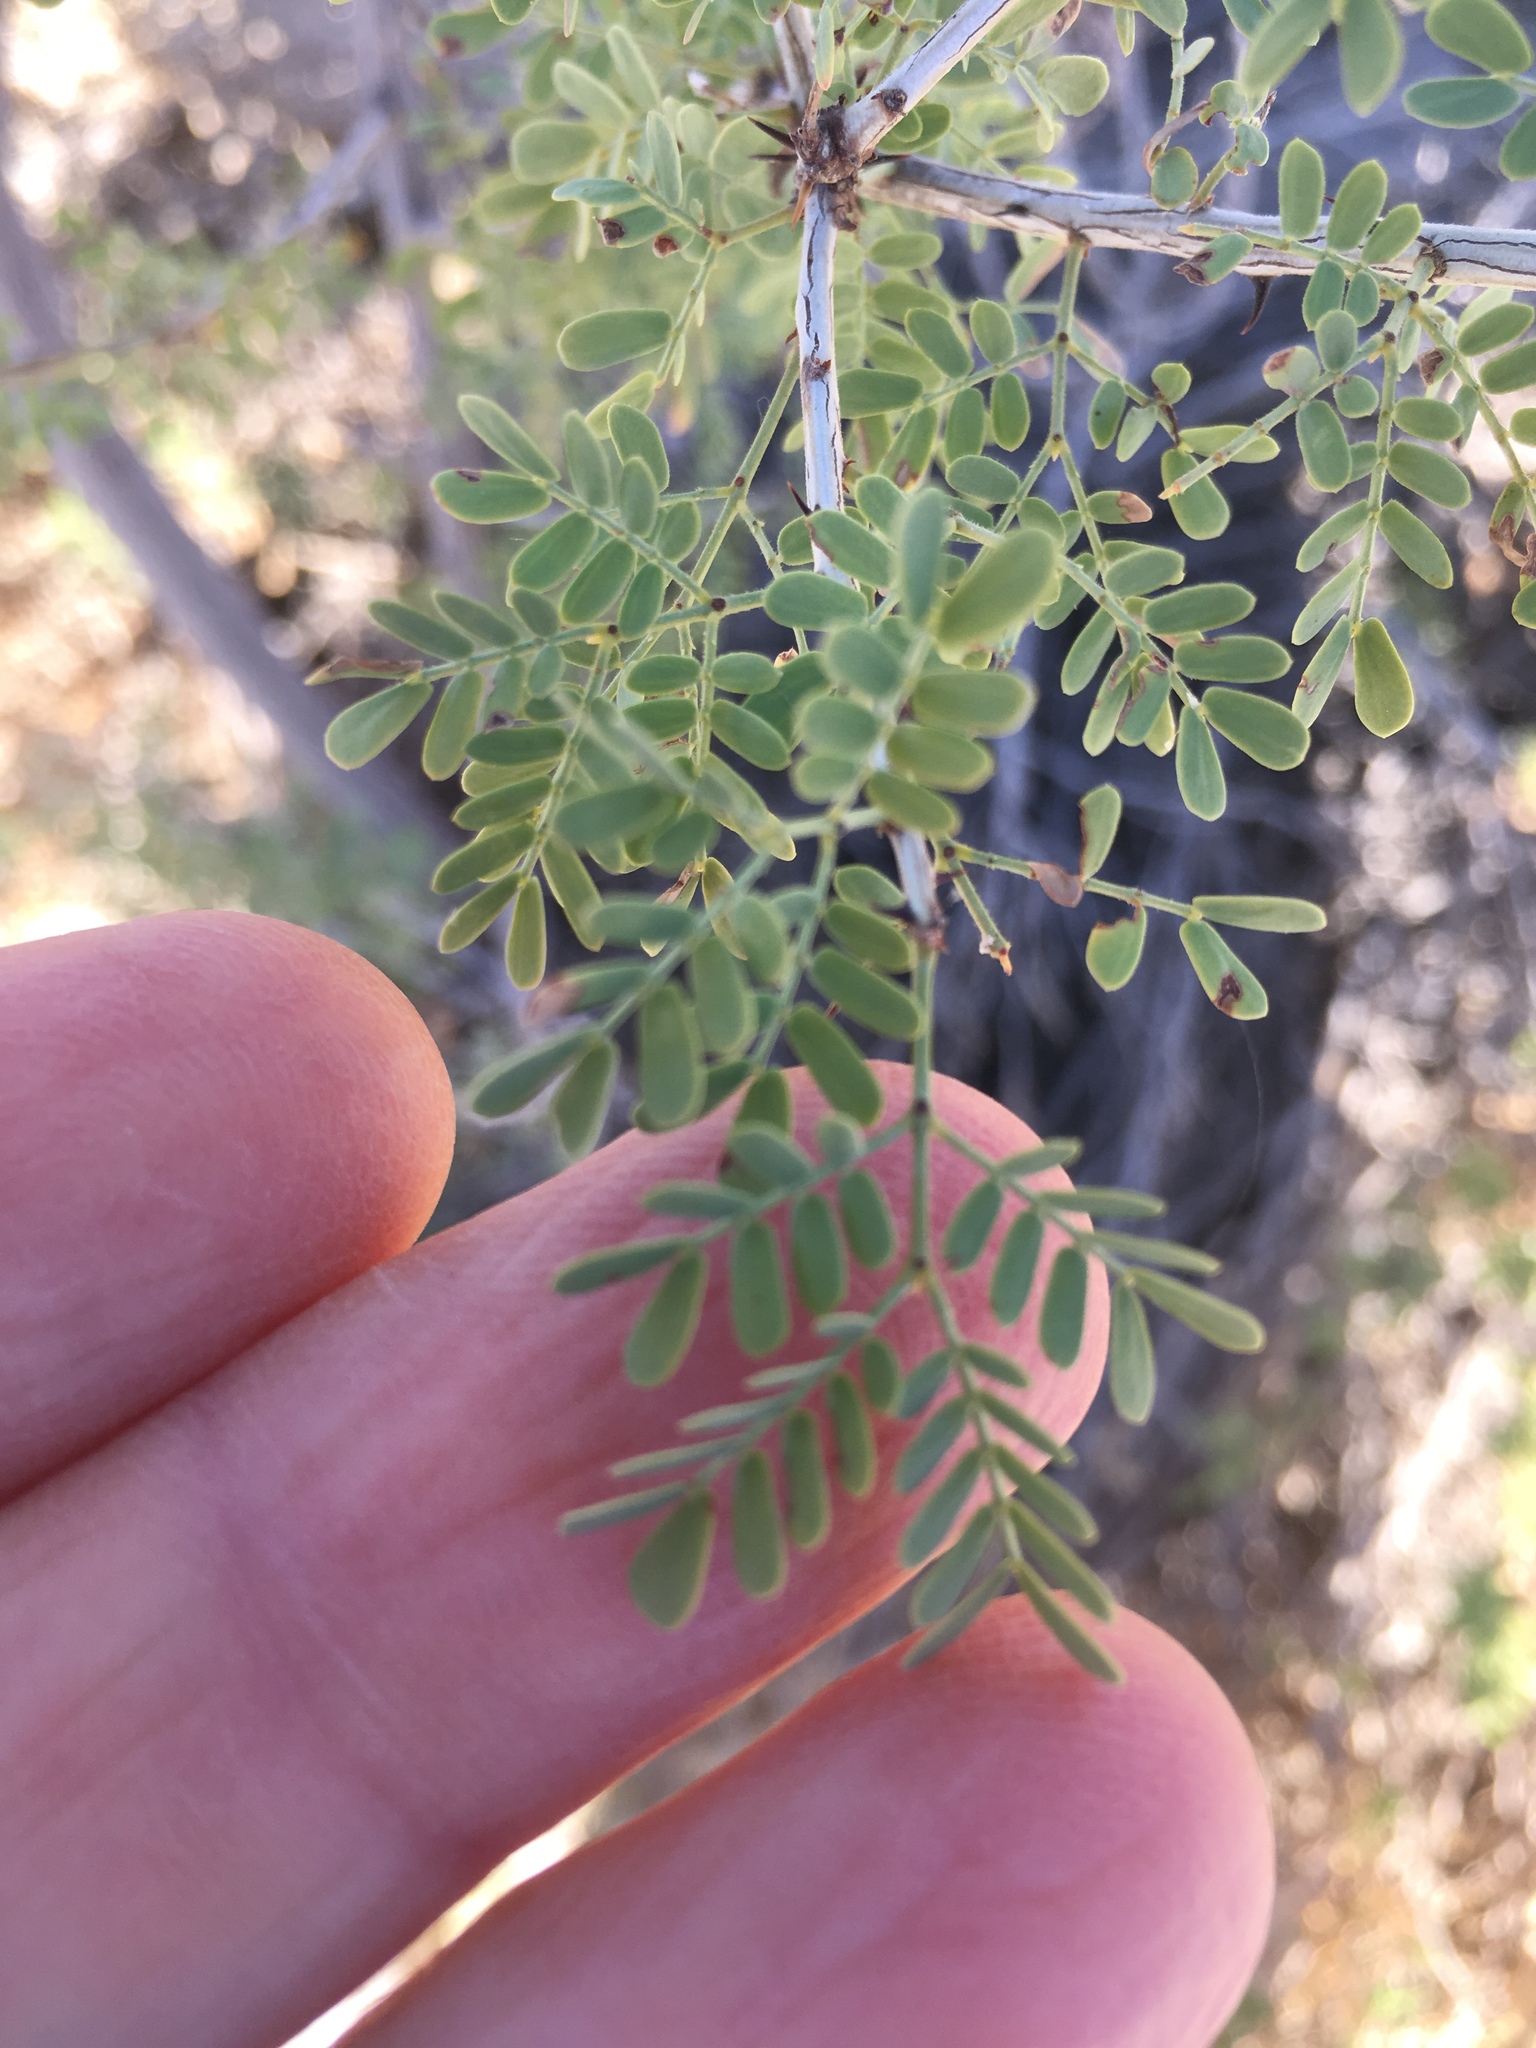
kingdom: Plantae
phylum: Tracheophyta
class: Magnoliopsida
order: Fabales
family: Fabaceae
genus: Senegalia
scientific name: Senegalia greggii
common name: Texas-mimosa
